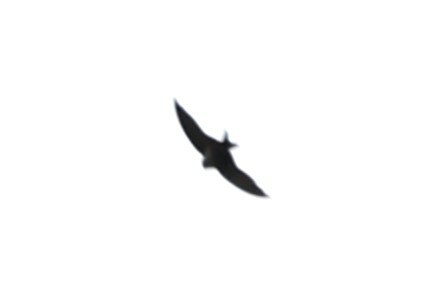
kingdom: Animalia
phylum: Chordata
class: Aves
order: Passeriformes
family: Hirundinidae
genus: Notiochelidon
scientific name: Notiochelidon murina
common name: Brown-bellied swallow
